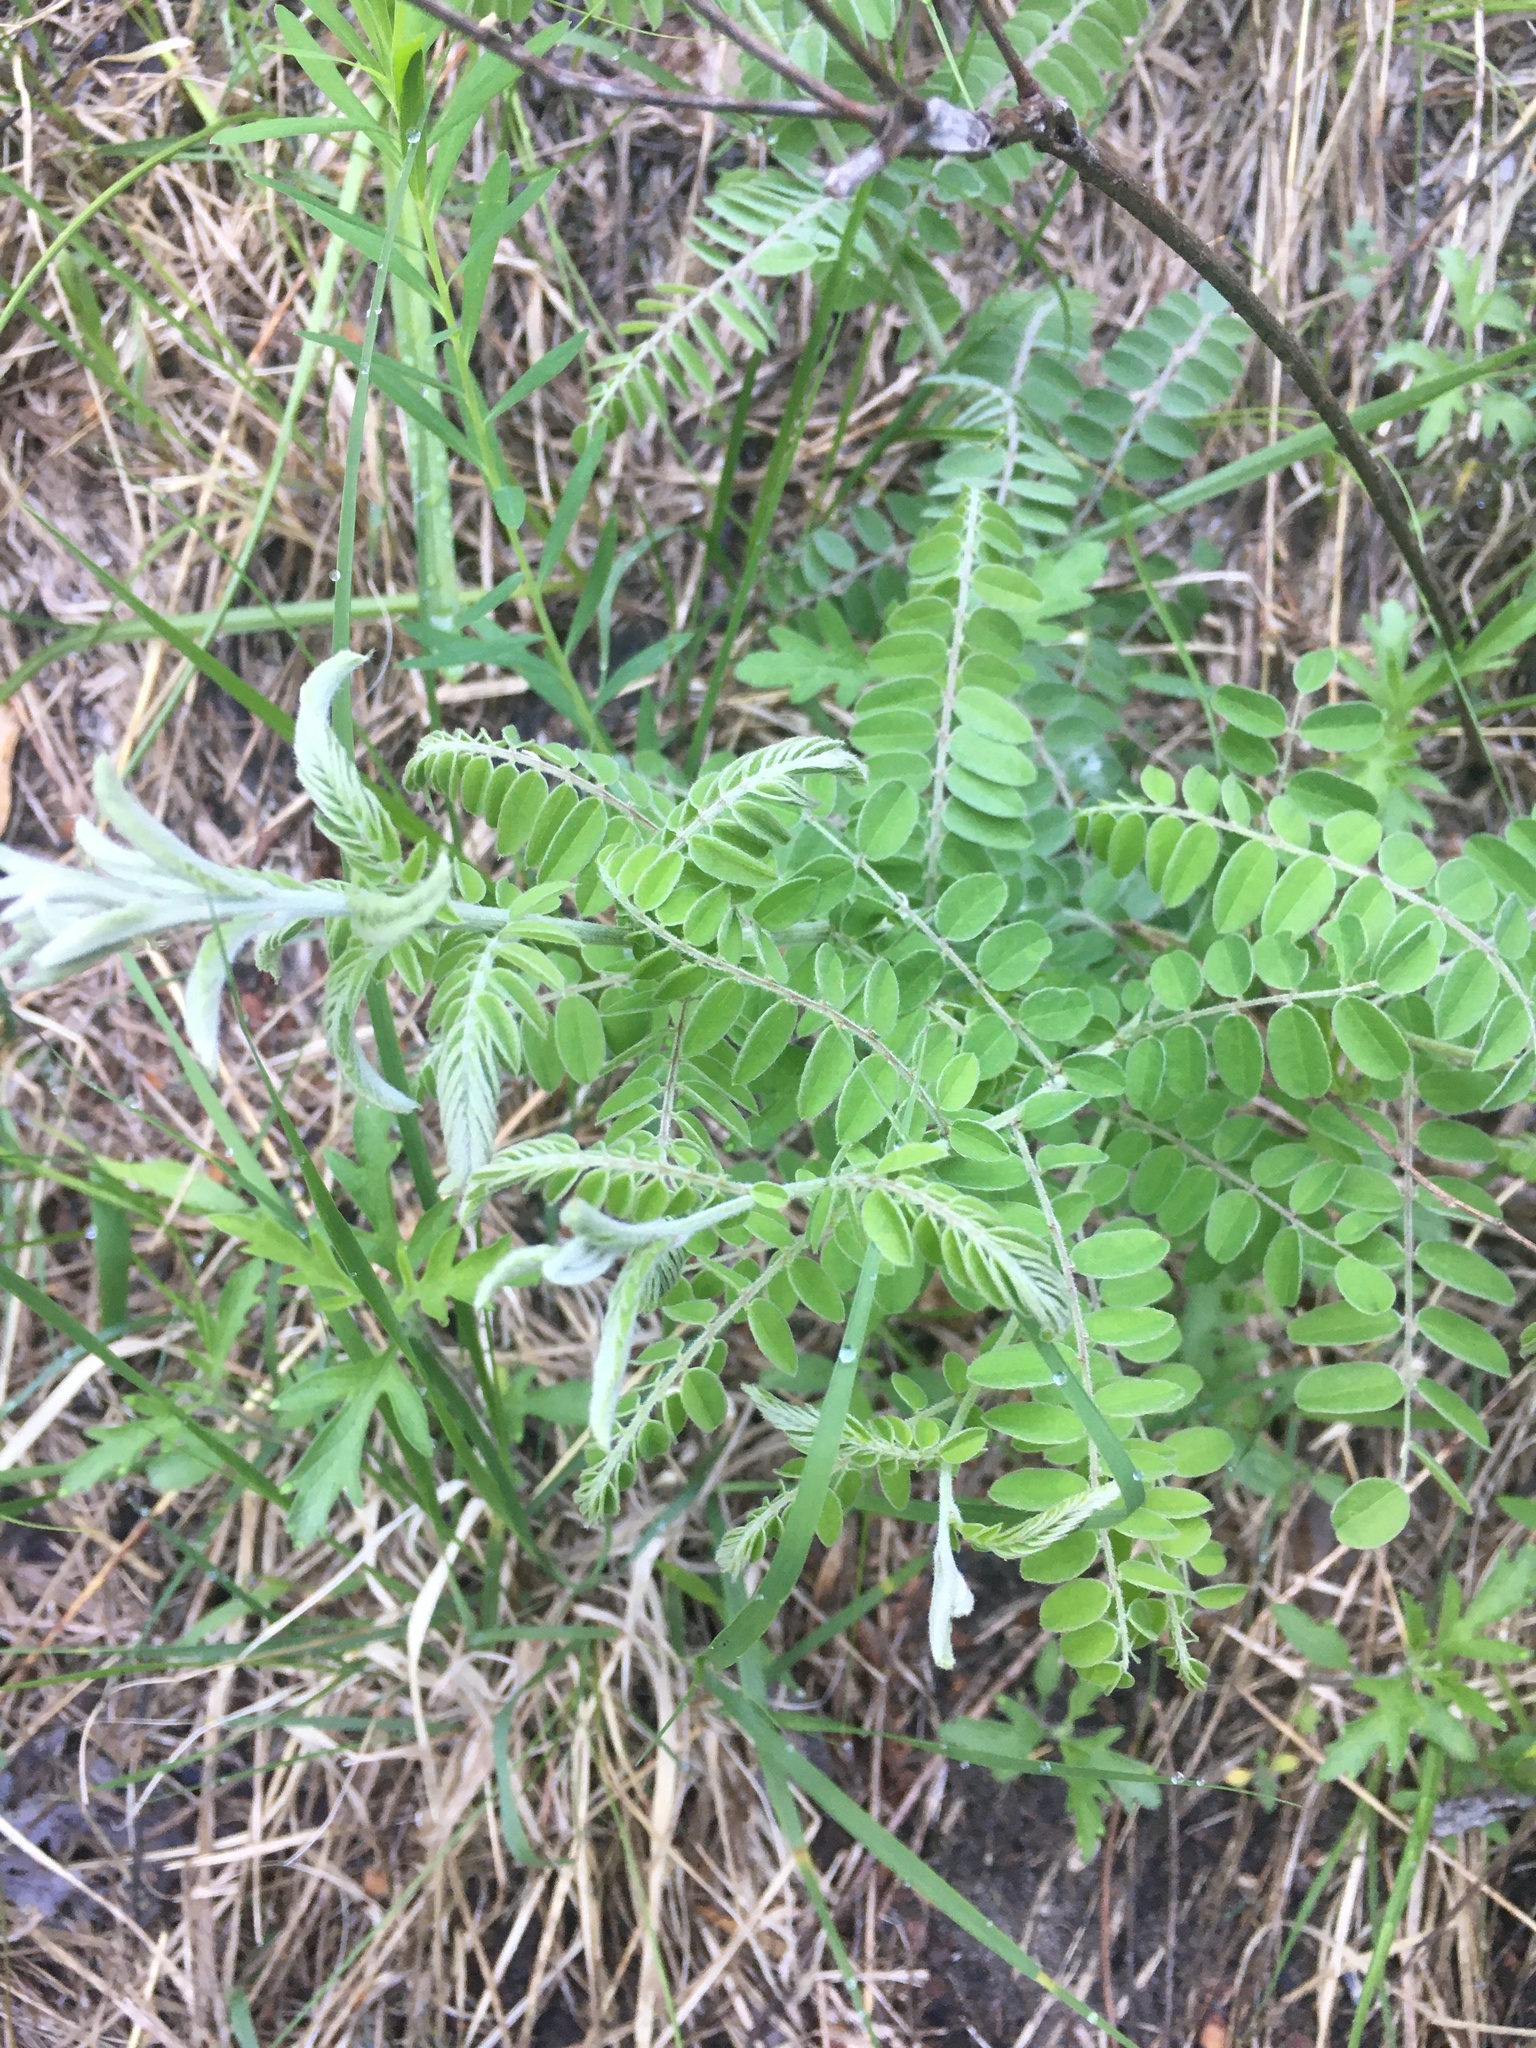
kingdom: Plantae
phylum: Tracheophyta
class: Magnoliopsida
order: Fabales
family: Fabaceae
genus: Amorpha
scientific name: Amorpha canescens
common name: Leadplant
